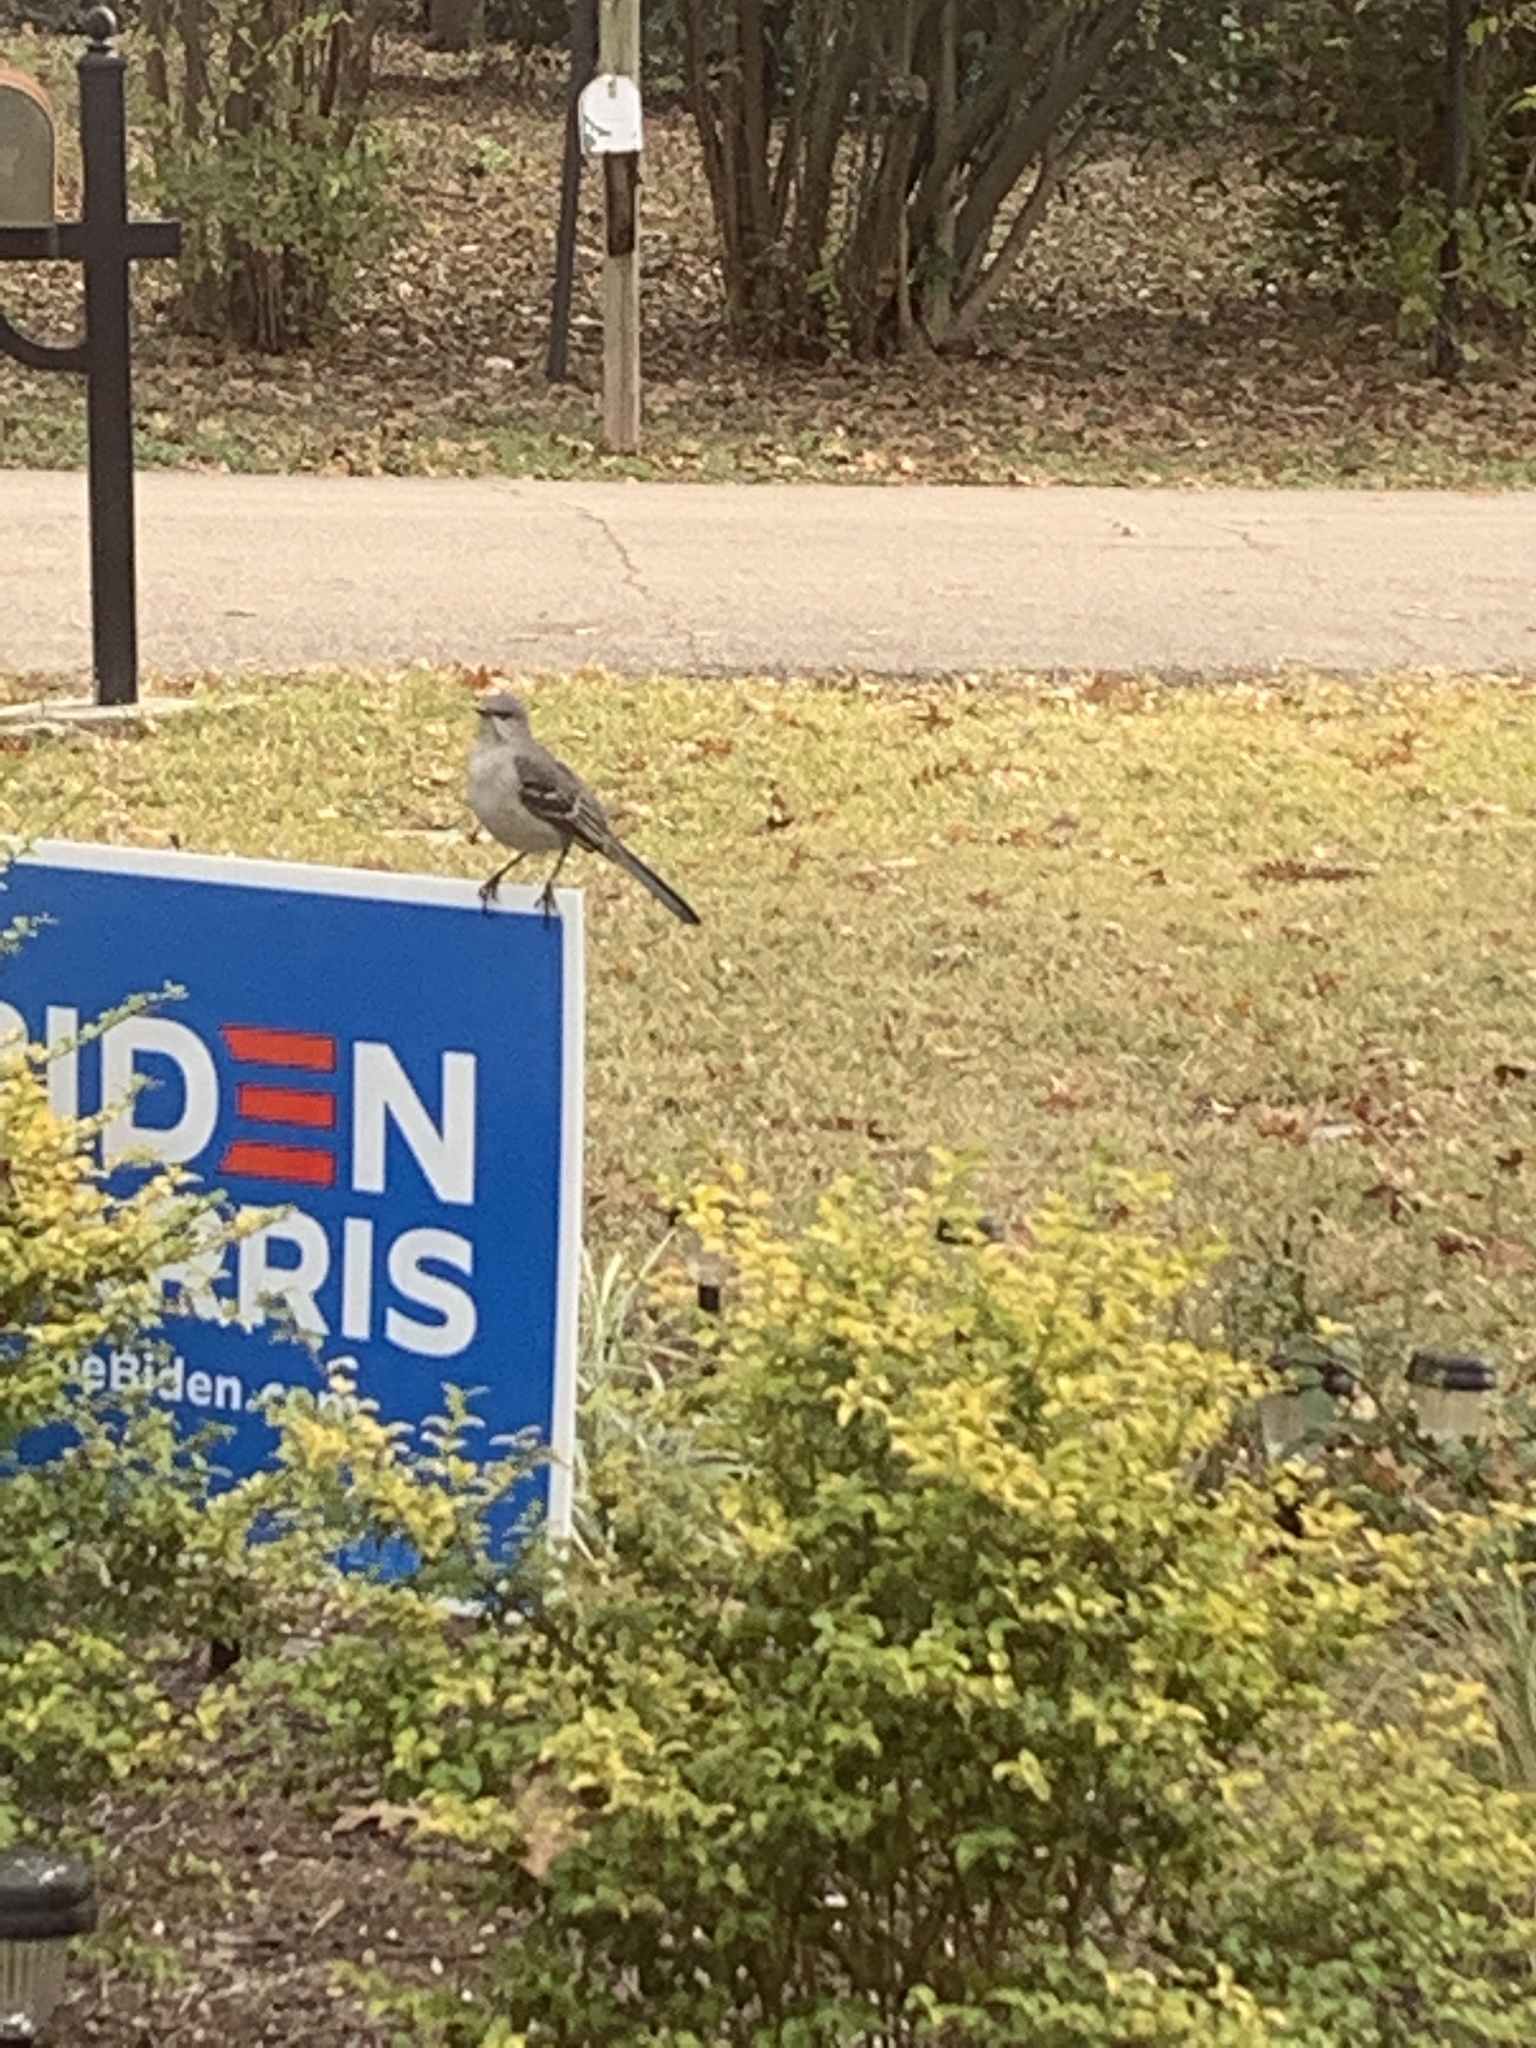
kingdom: Animalia
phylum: Chordata
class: Aves
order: Passeriformes
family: Mimidae
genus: Mimus
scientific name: Mimus polyglottos
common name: Northern mockingbird
